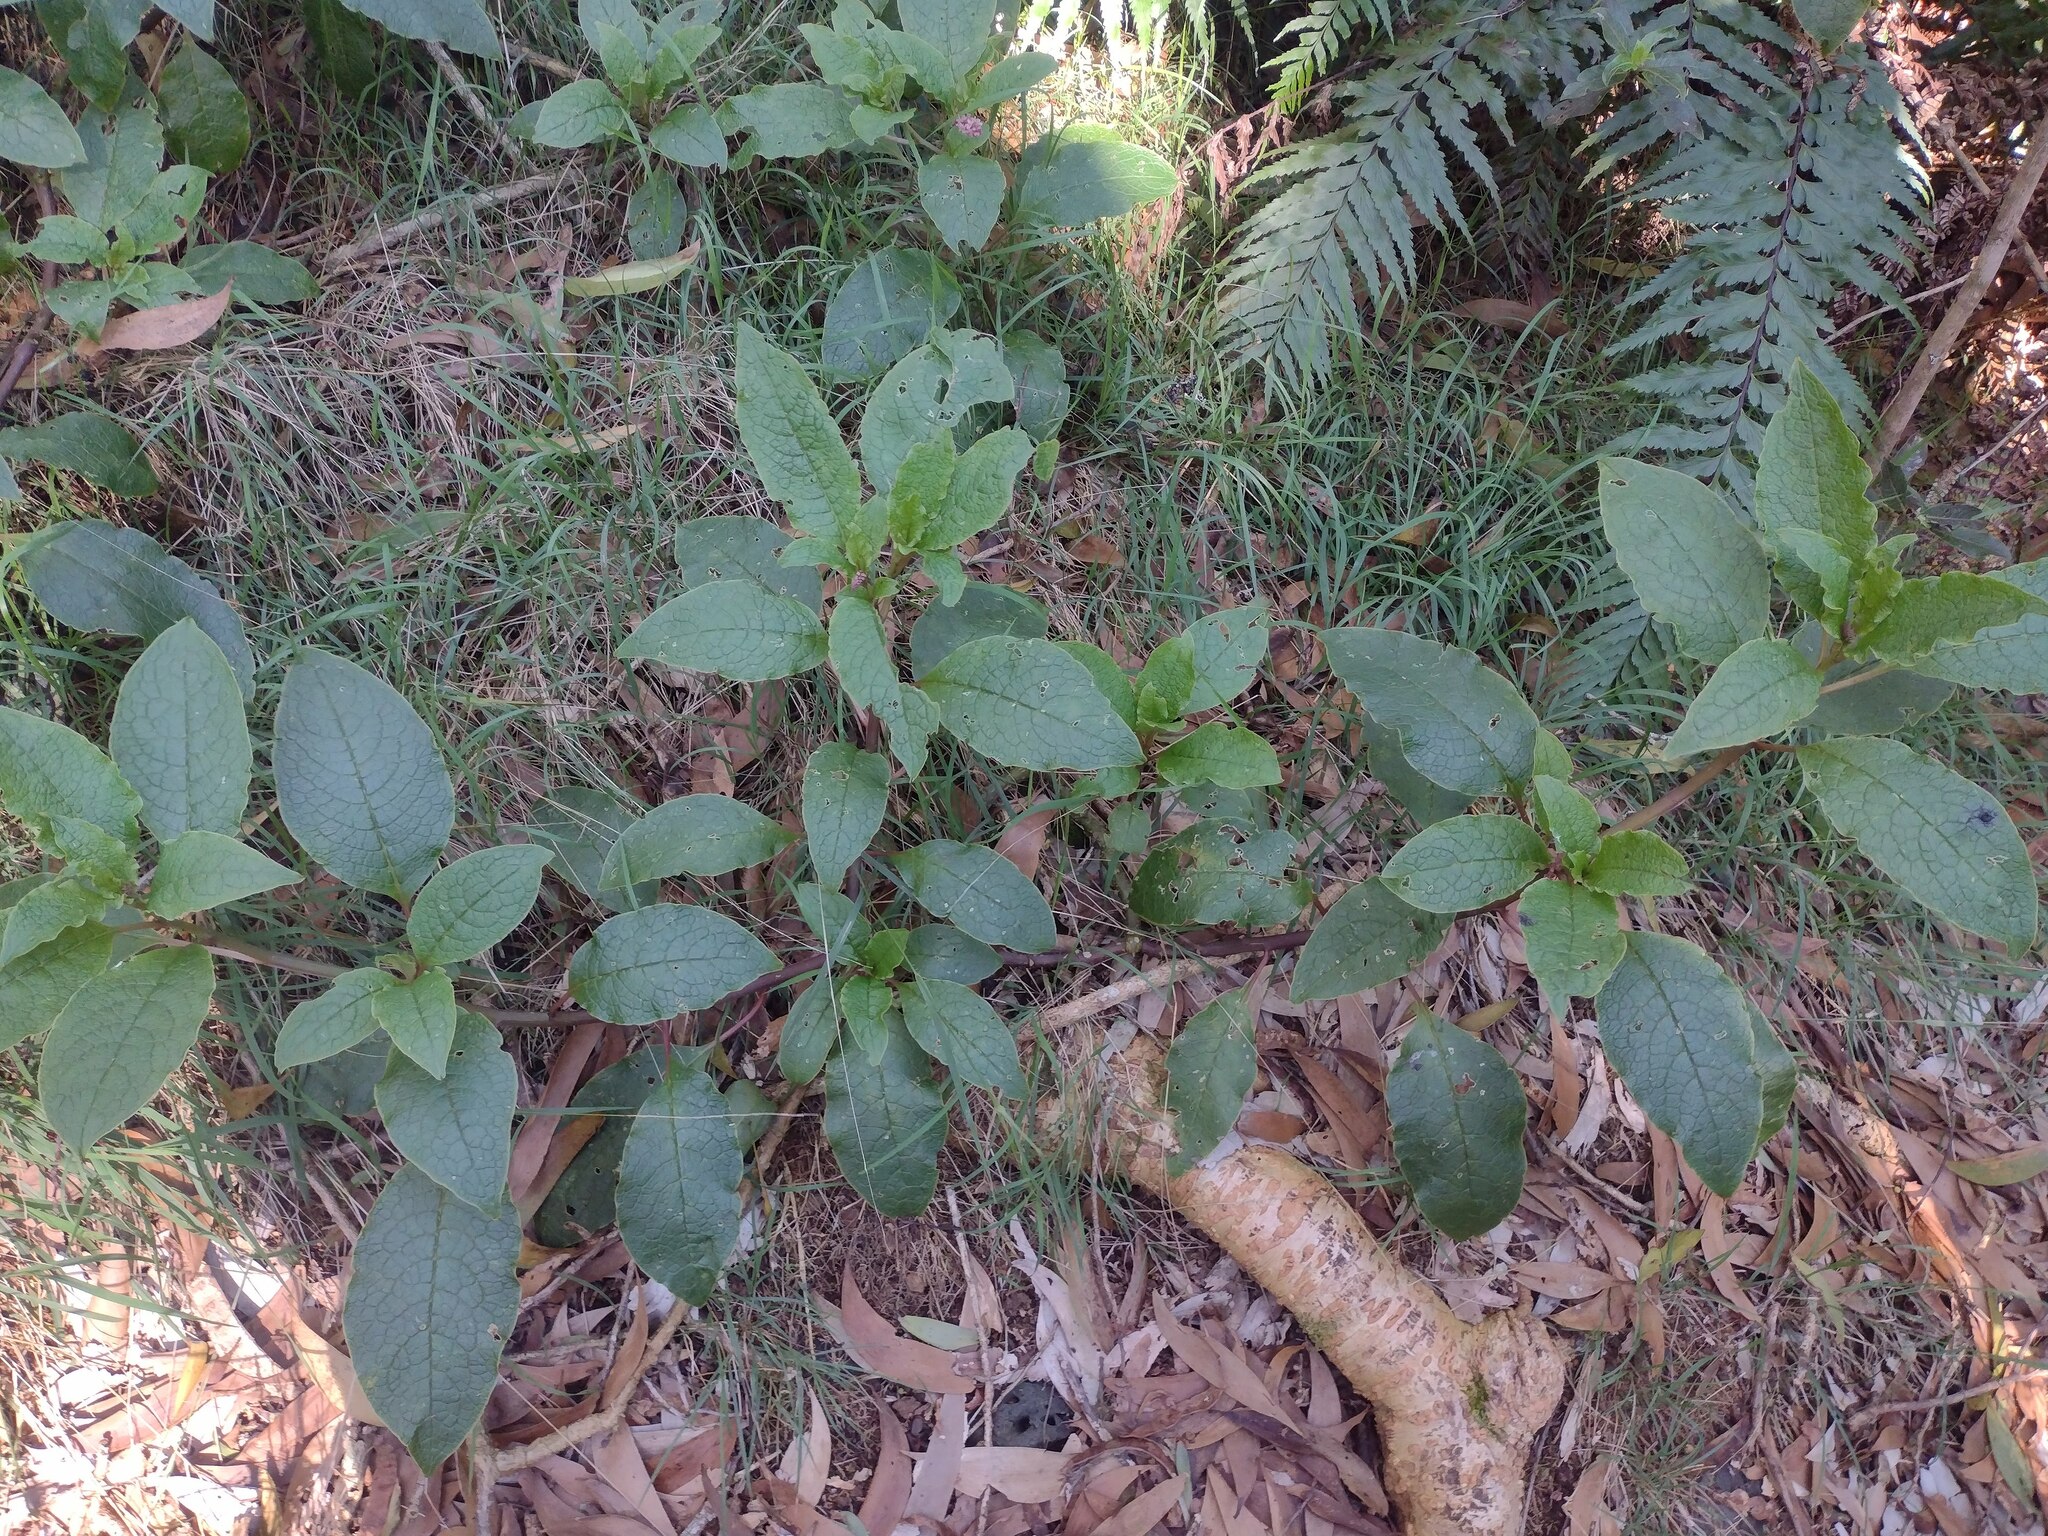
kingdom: Plantae
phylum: Tracheophyta
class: Magnoliopsida
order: Caryophyllales
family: Phytolaccaceae
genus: Phytolacca
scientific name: Phytolacca sandwicensis
